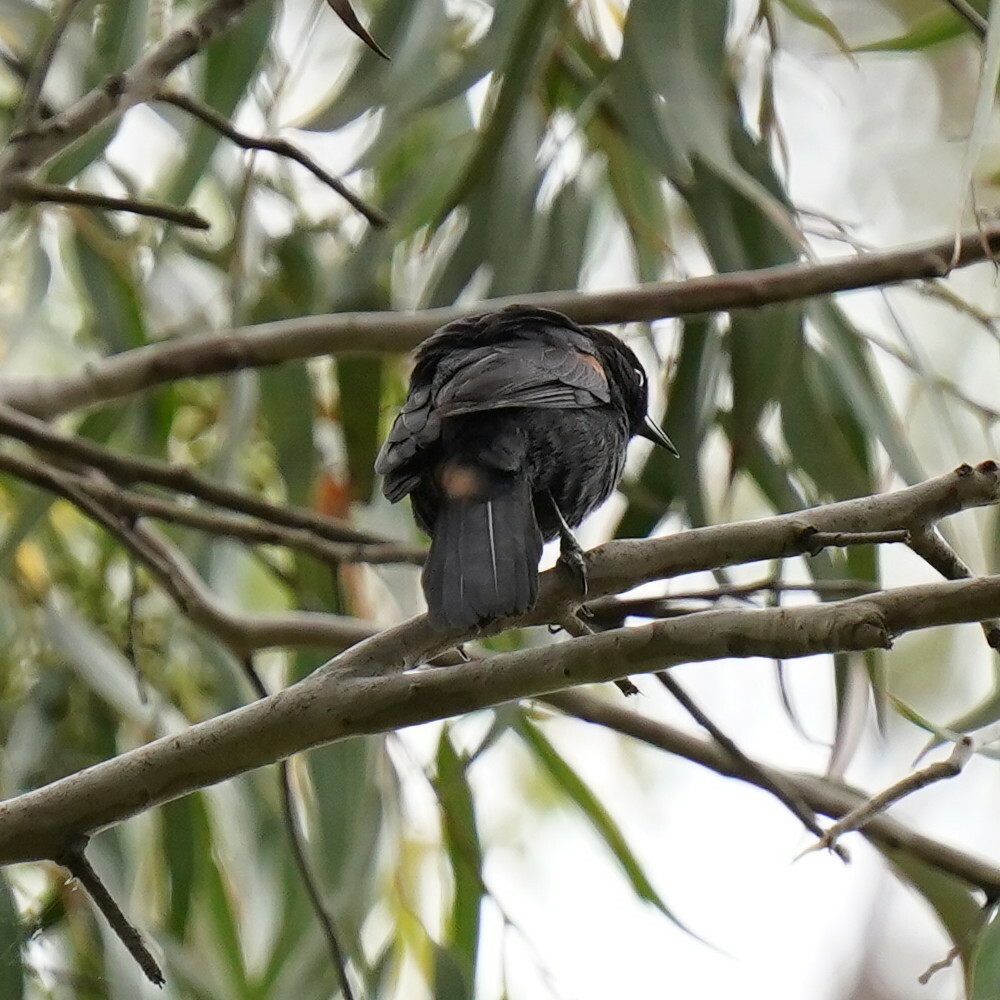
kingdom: Animalia
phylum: Chordata
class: Aves
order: Passeriformes
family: Icteridae
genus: Icterus
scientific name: Icterus cayanensis
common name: Epaulet oriole
